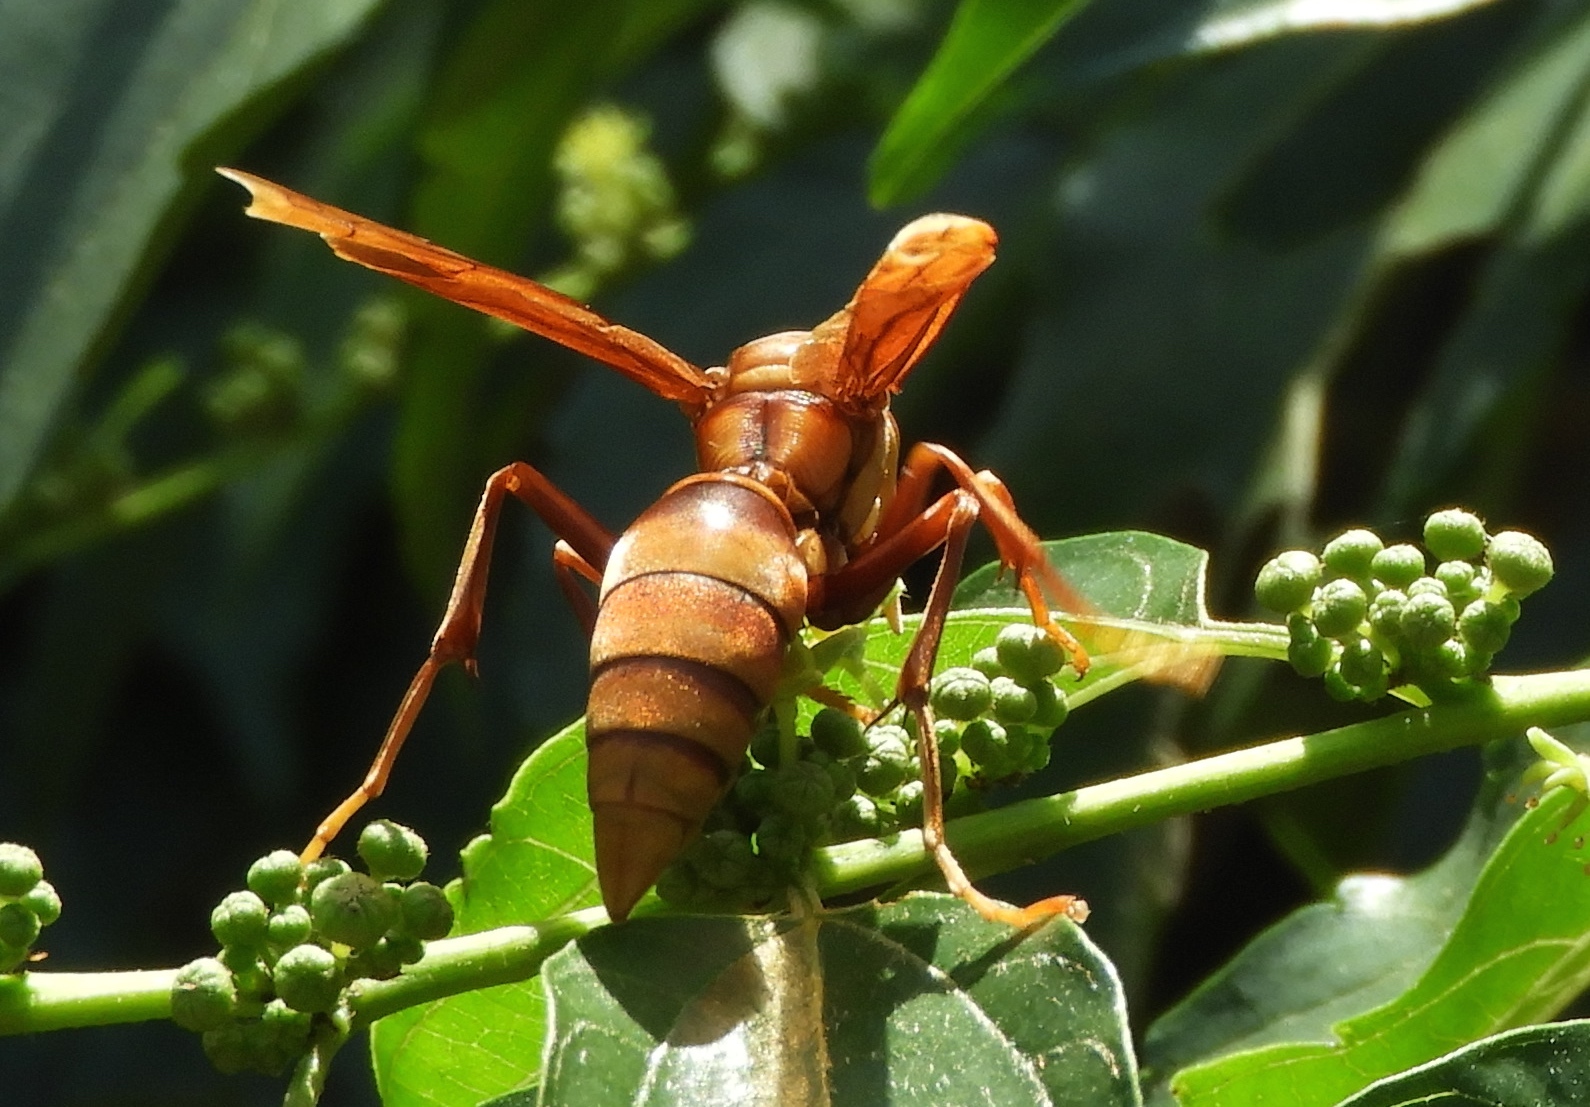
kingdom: Animalia
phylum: Arthropoda
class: Insecta
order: Hymenoptera
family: Eumenidae
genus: Polistes
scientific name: Polistes carnifex
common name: Paper wasp
